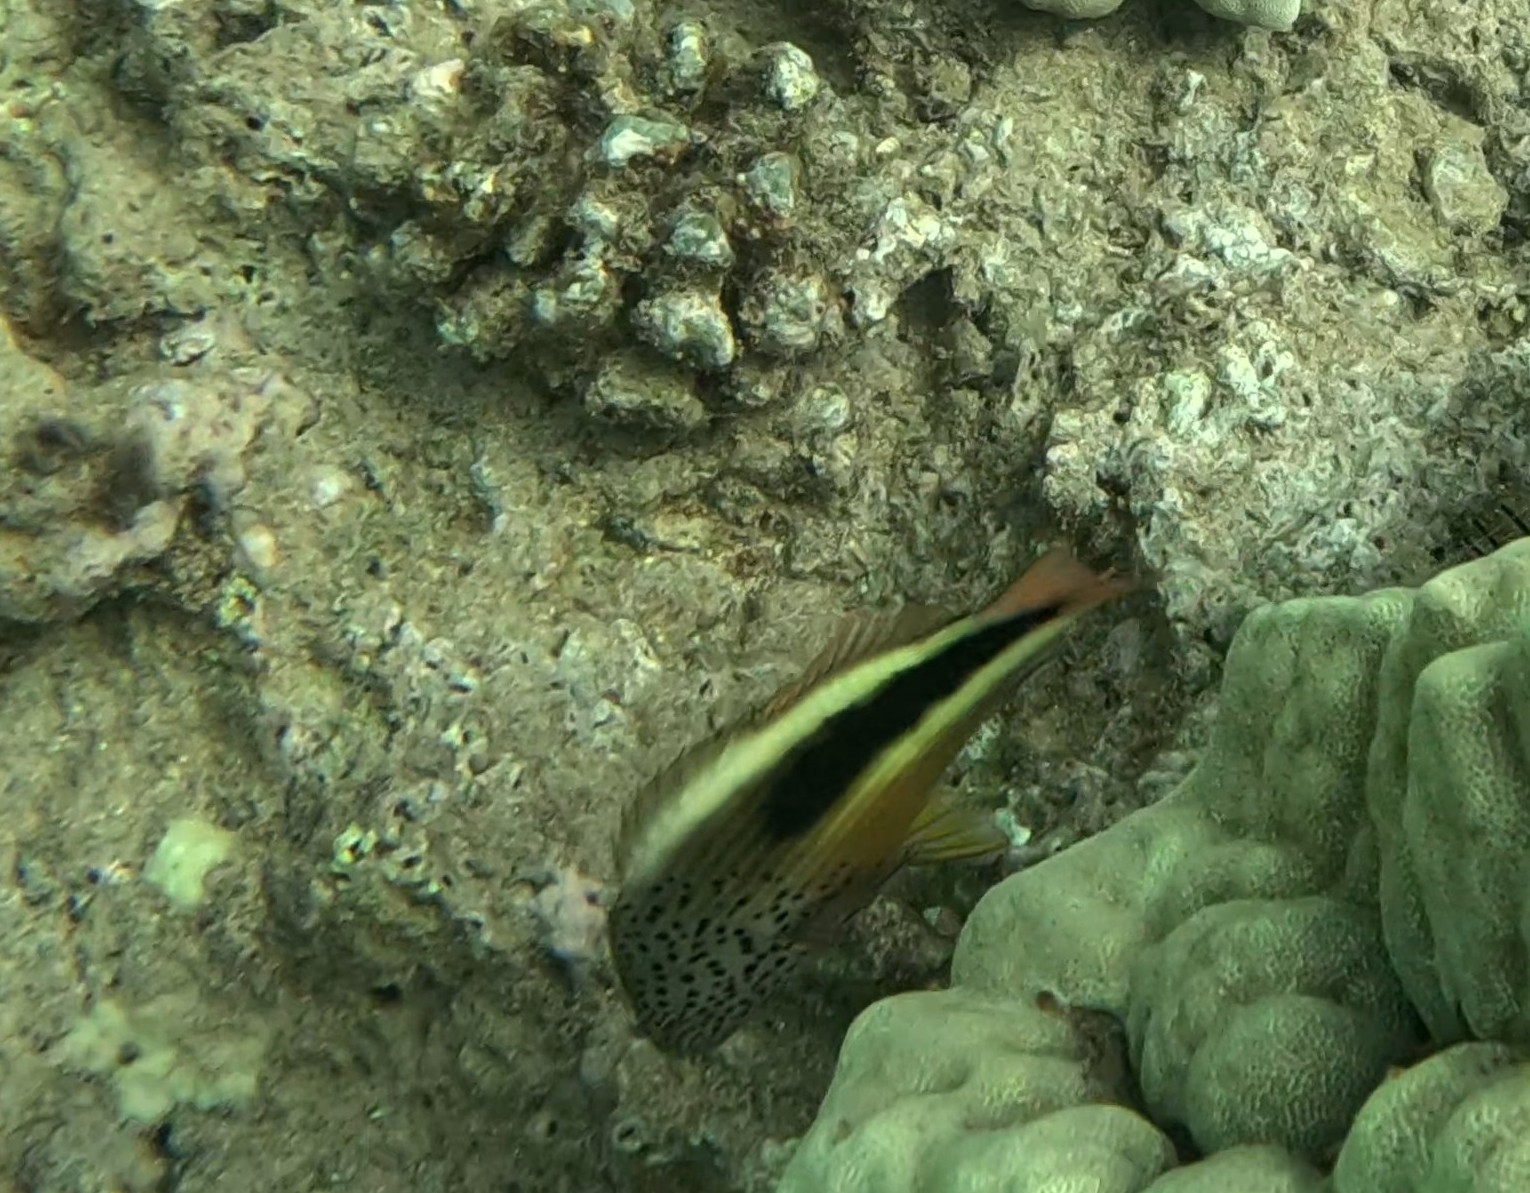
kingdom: Animalia
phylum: Chordata
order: Perciformes
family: Cirrhitidae
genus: Paracirrhites
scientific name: Paracirrhites forsteri
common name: Freckled hawkfish
